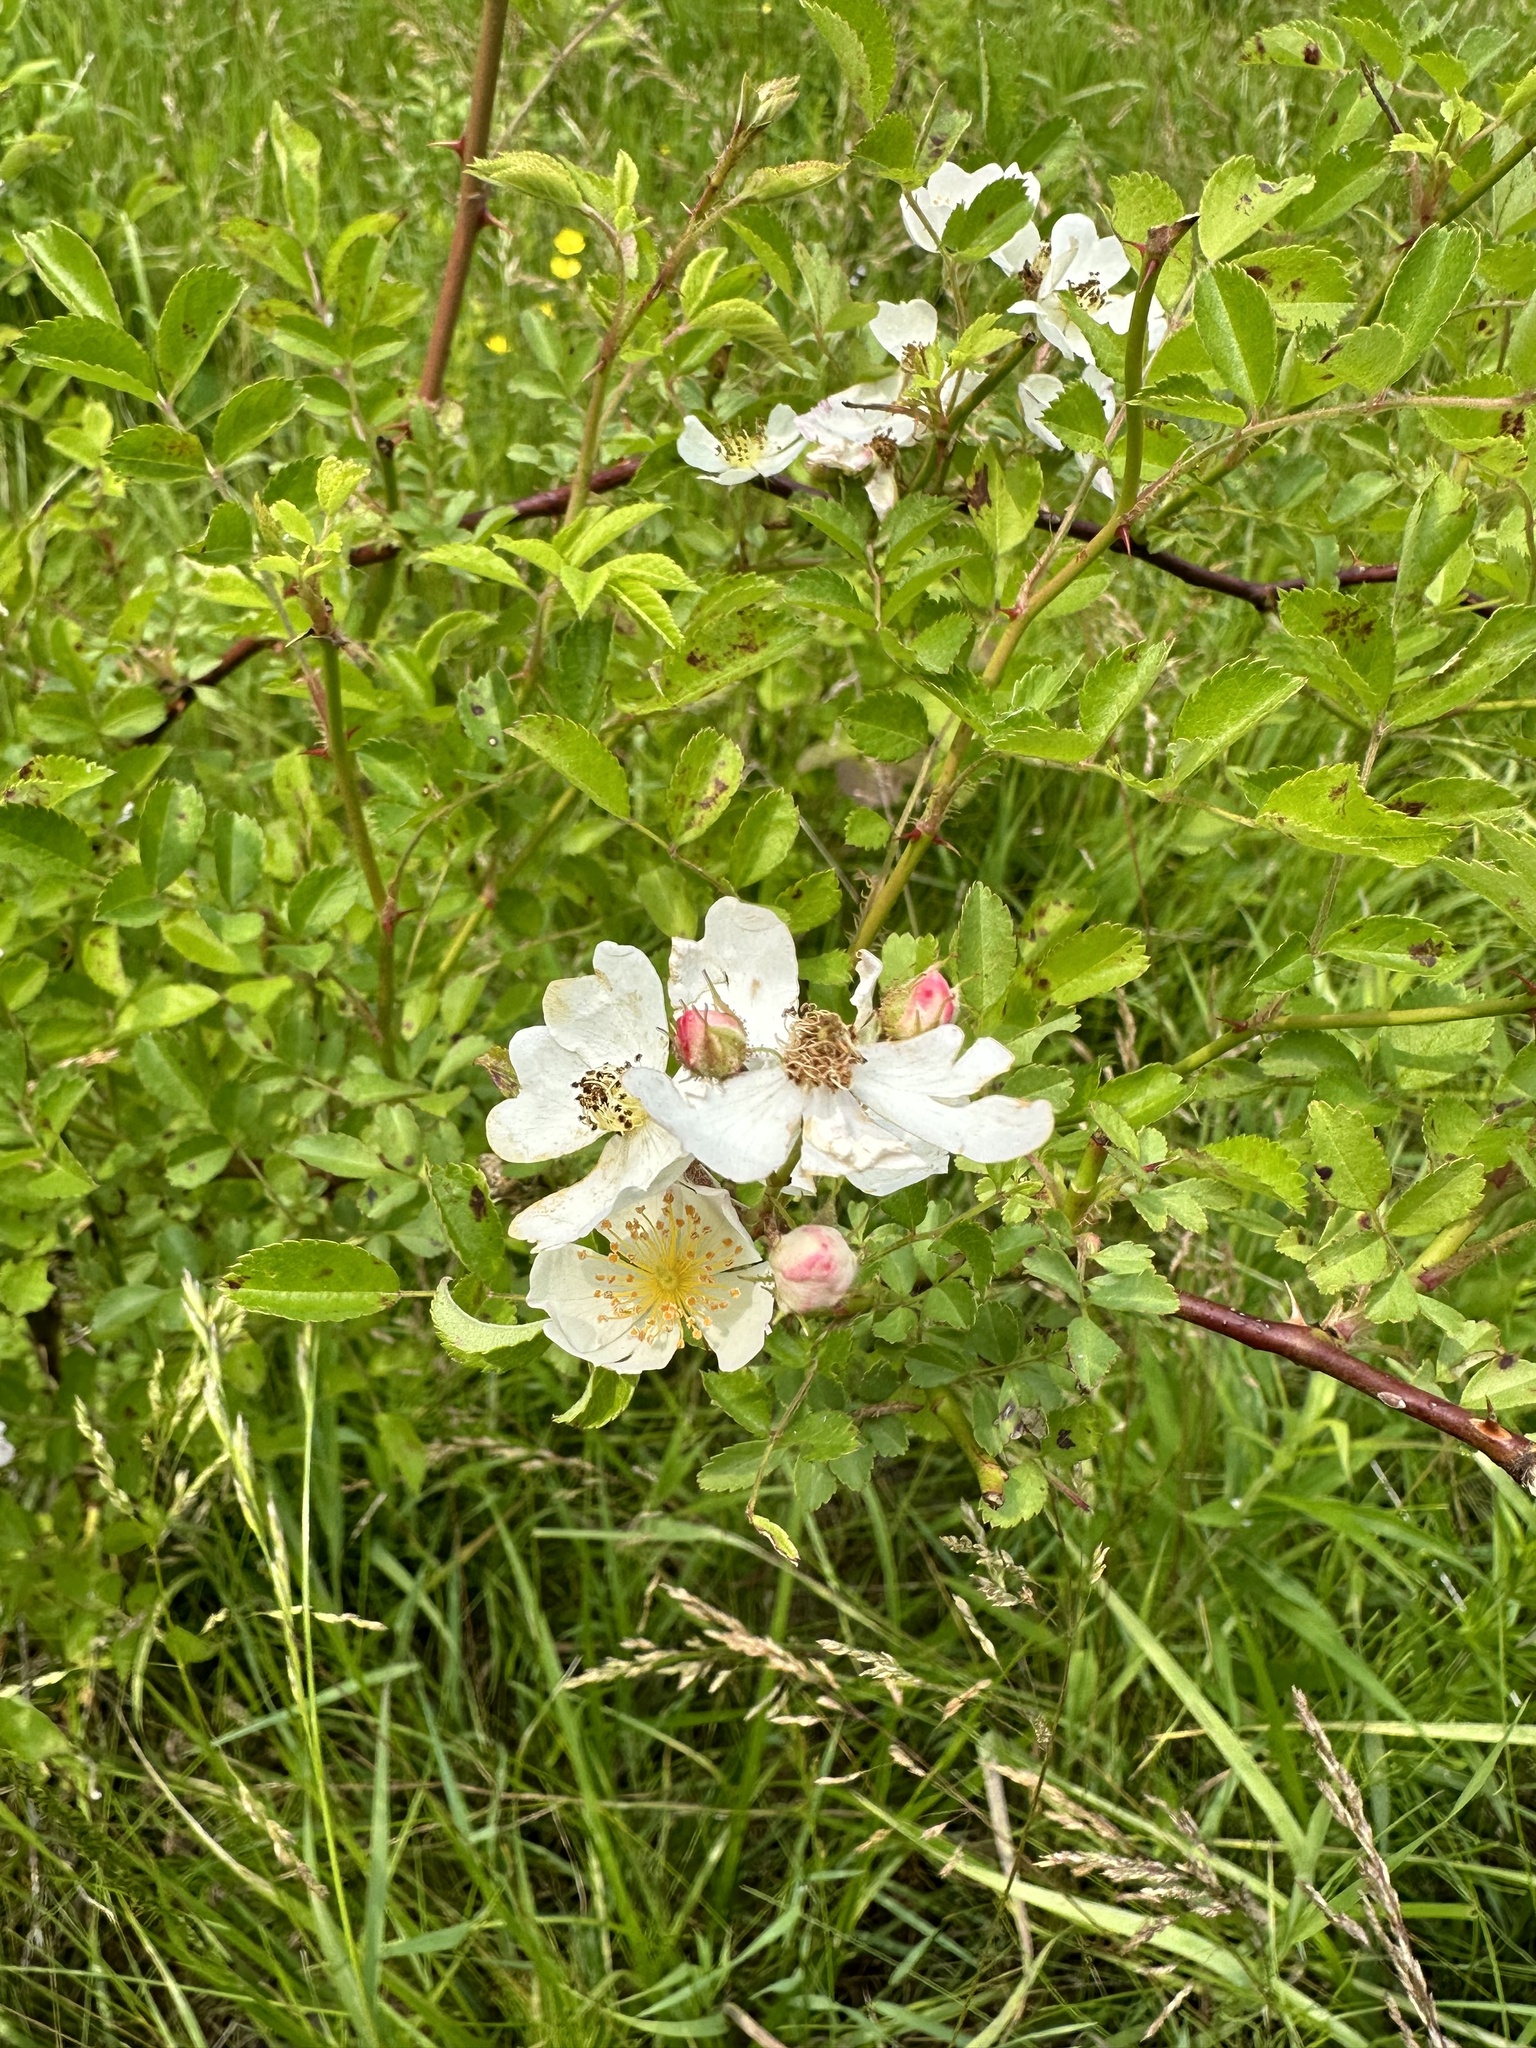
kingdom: Plantae
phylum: Tracheophyta
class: Magnoliopsida
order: Rosales
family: Rosaceae
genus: Rosa
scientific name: Rosa multiflora
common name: Multiflora rose
